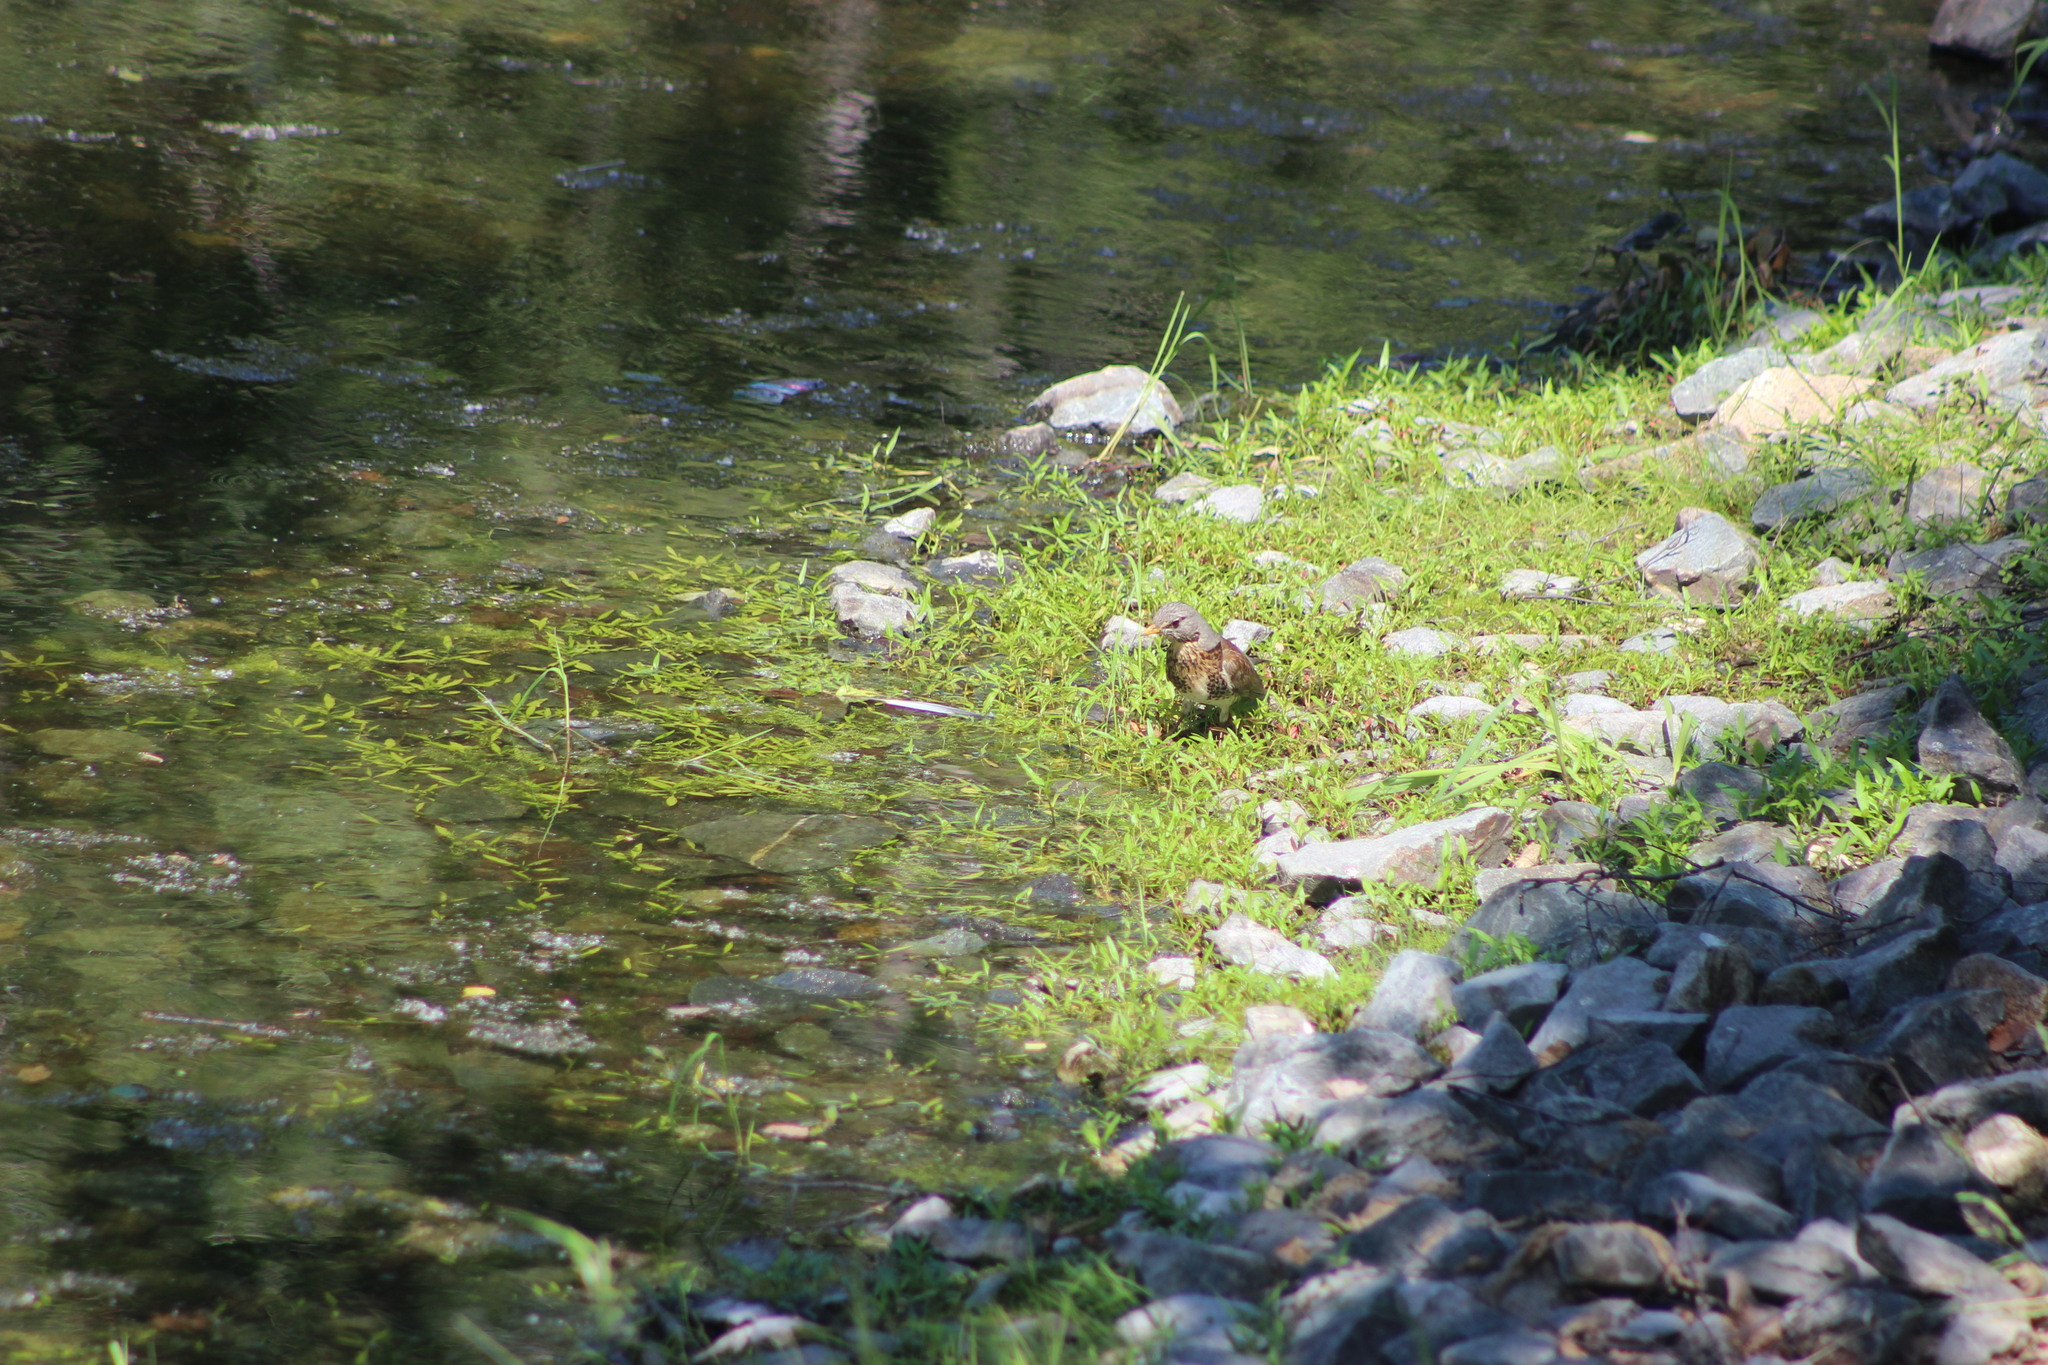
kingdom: Animalia
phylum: Chordata
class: Aves
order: Passeriformes
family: Turdidae
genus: Turdus
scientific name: Turdus pilaris
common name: Fieldfare
